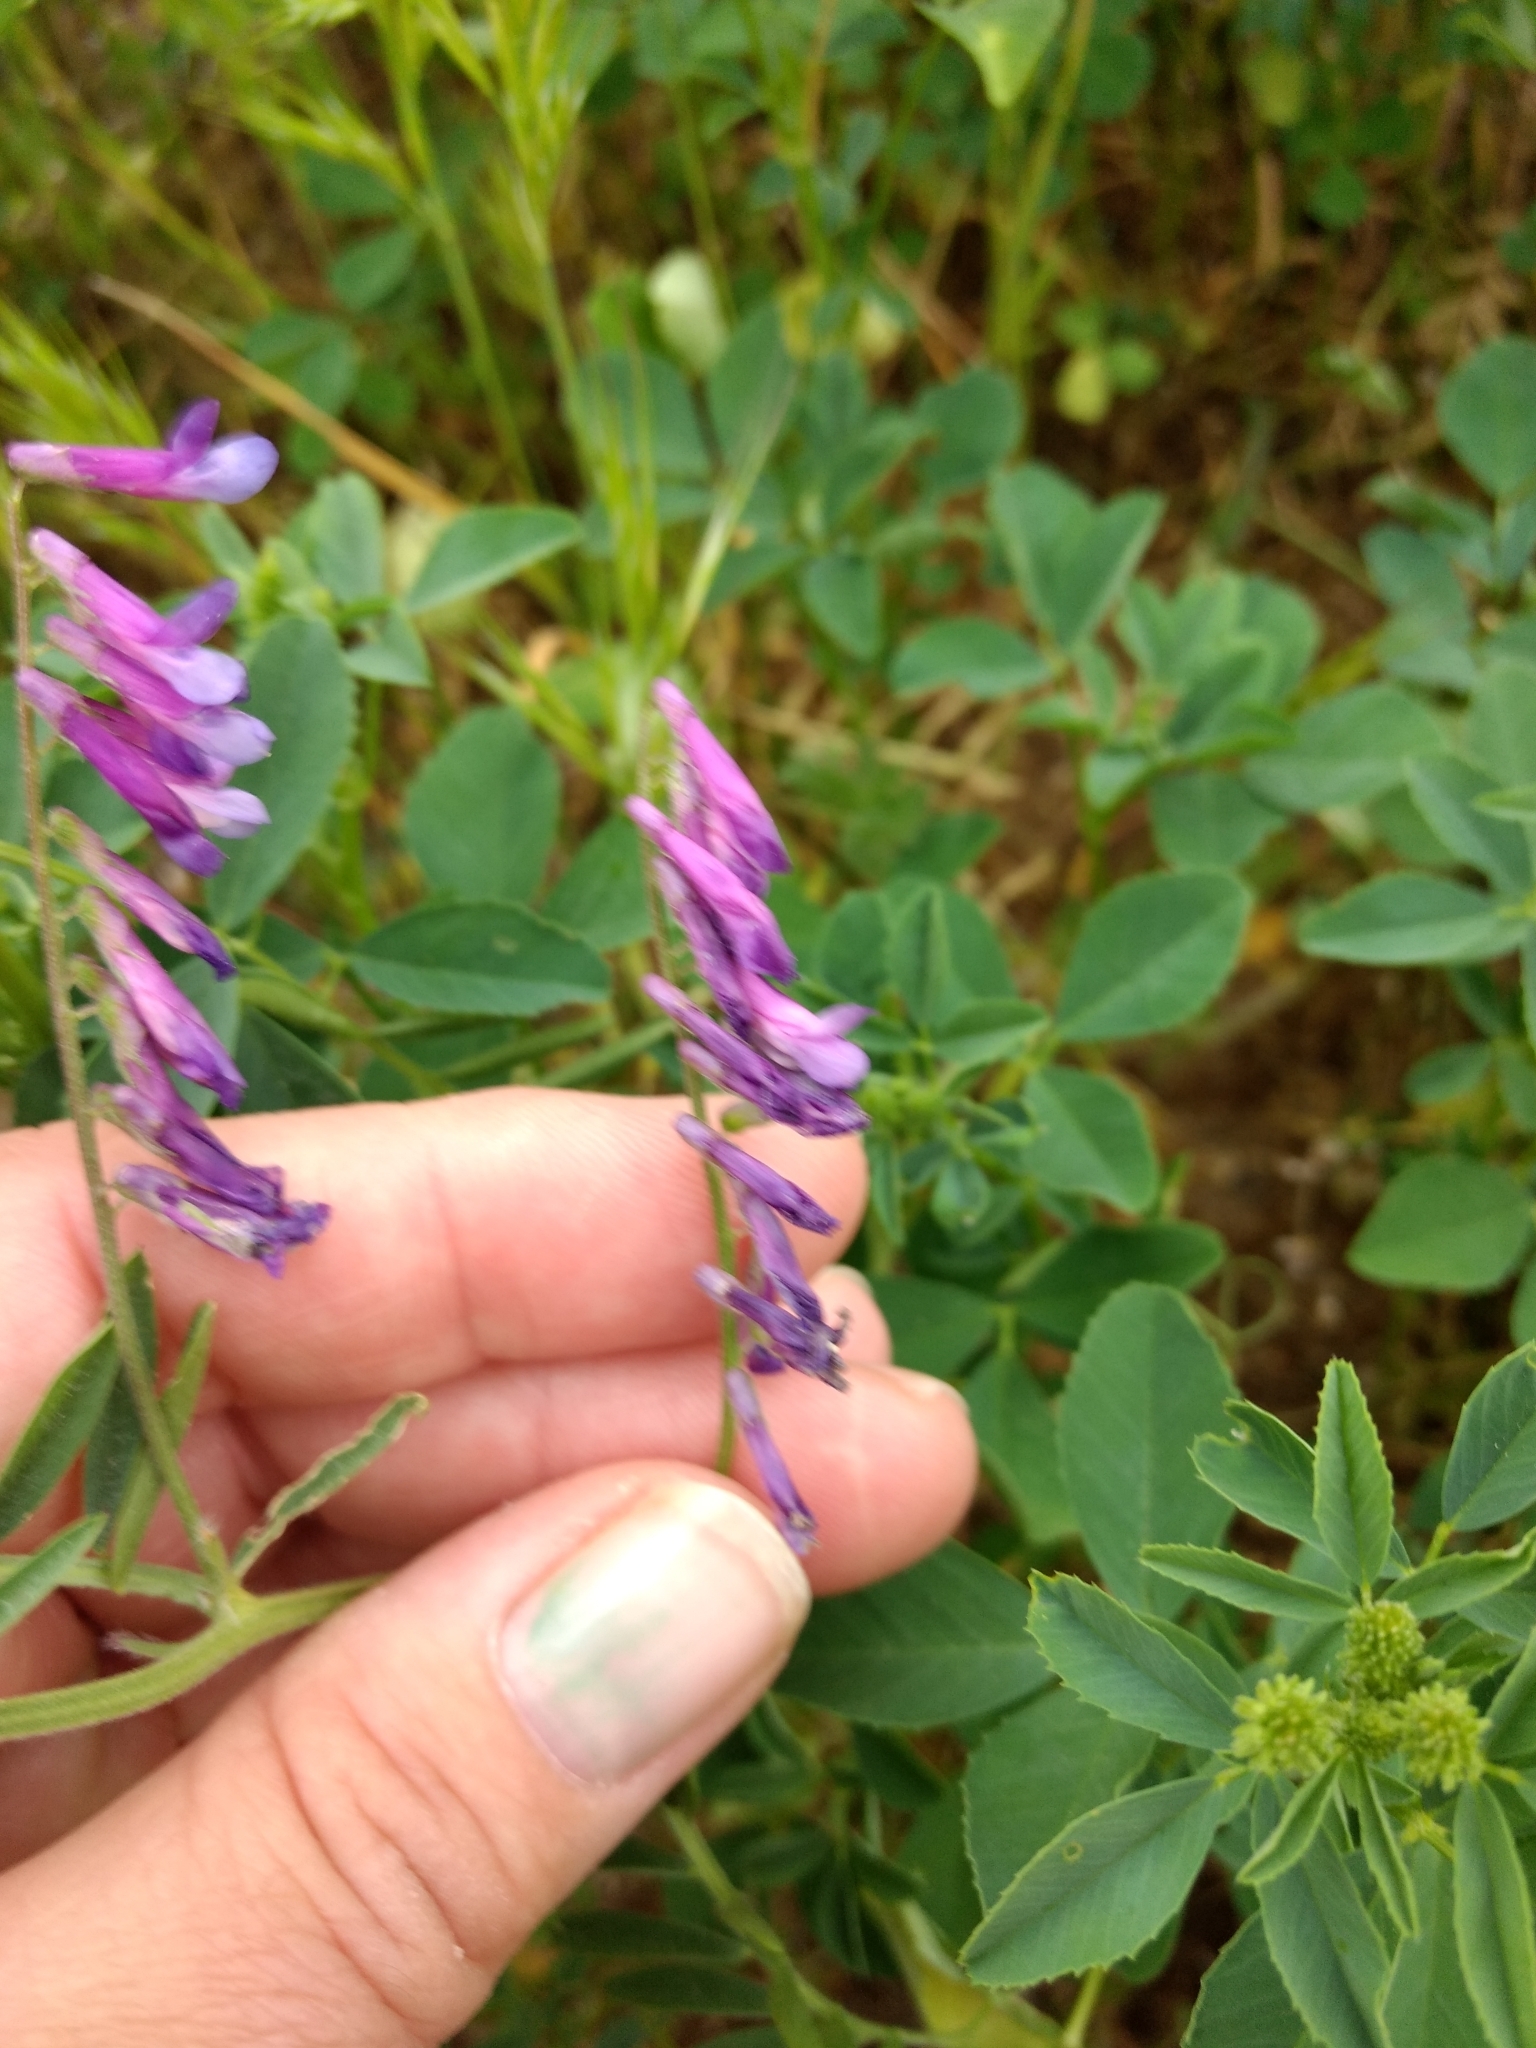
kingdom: Plantae
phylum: Tracheophyta
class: Magnoliopsida
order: Fabales
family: Fabaceae
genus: Vicia
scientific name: Vicia villosa
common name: Fodder vetch
